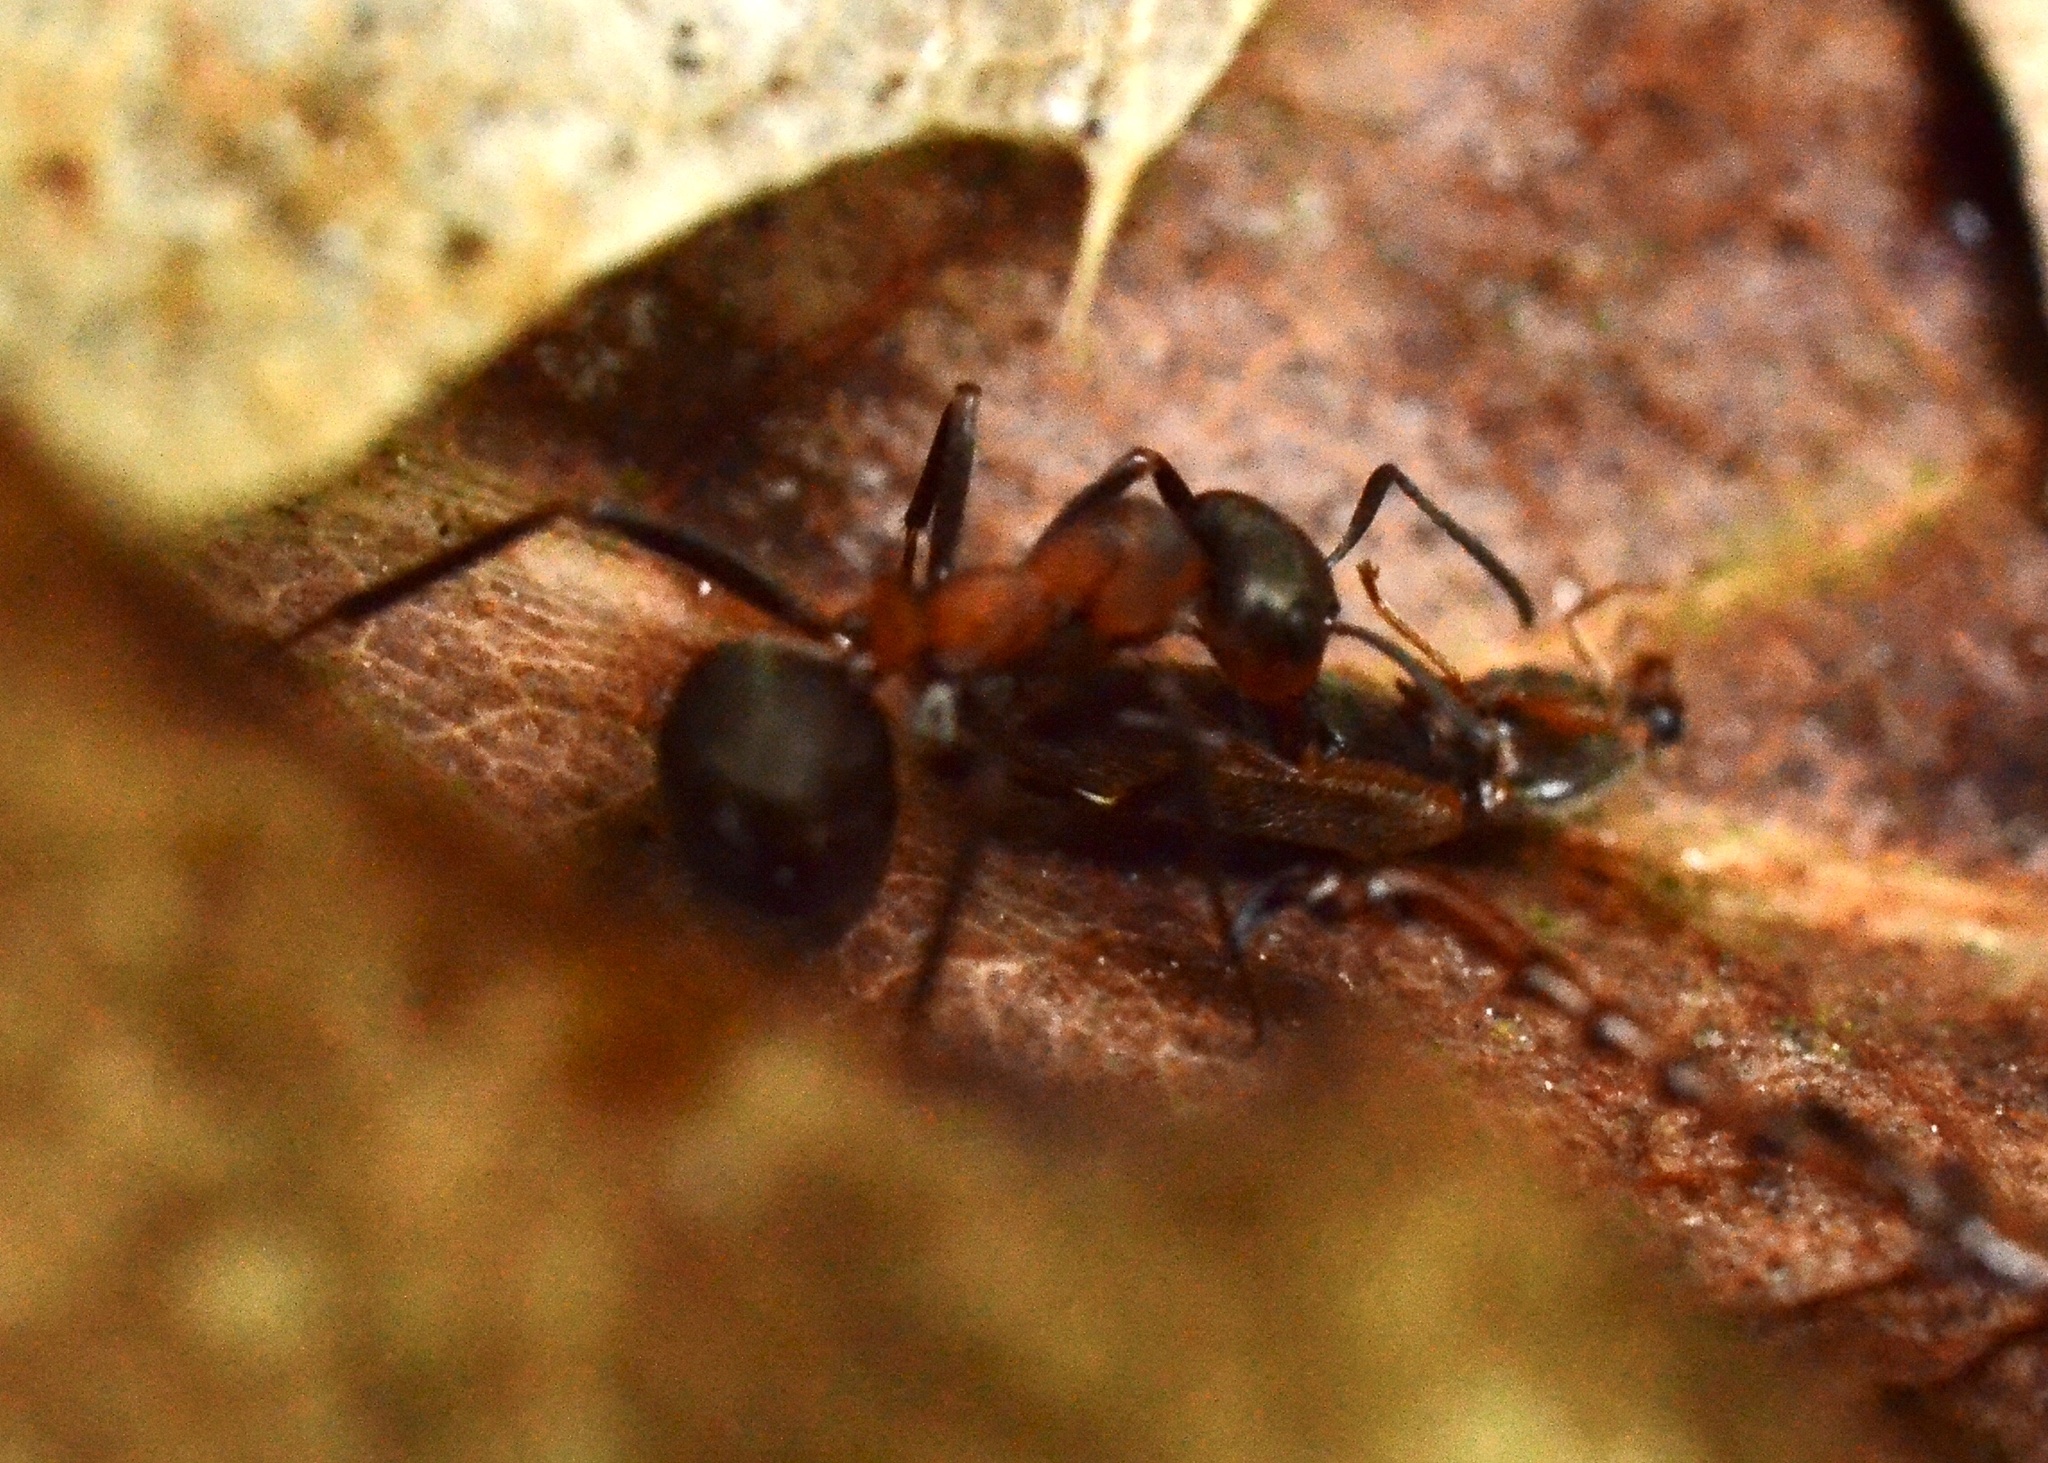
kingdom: Animalia
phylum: Arthropoda
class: Insecta
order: Hymenoptera
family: Formicidae
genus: Formica
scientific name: Formica pratensis
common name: European red wood ant
